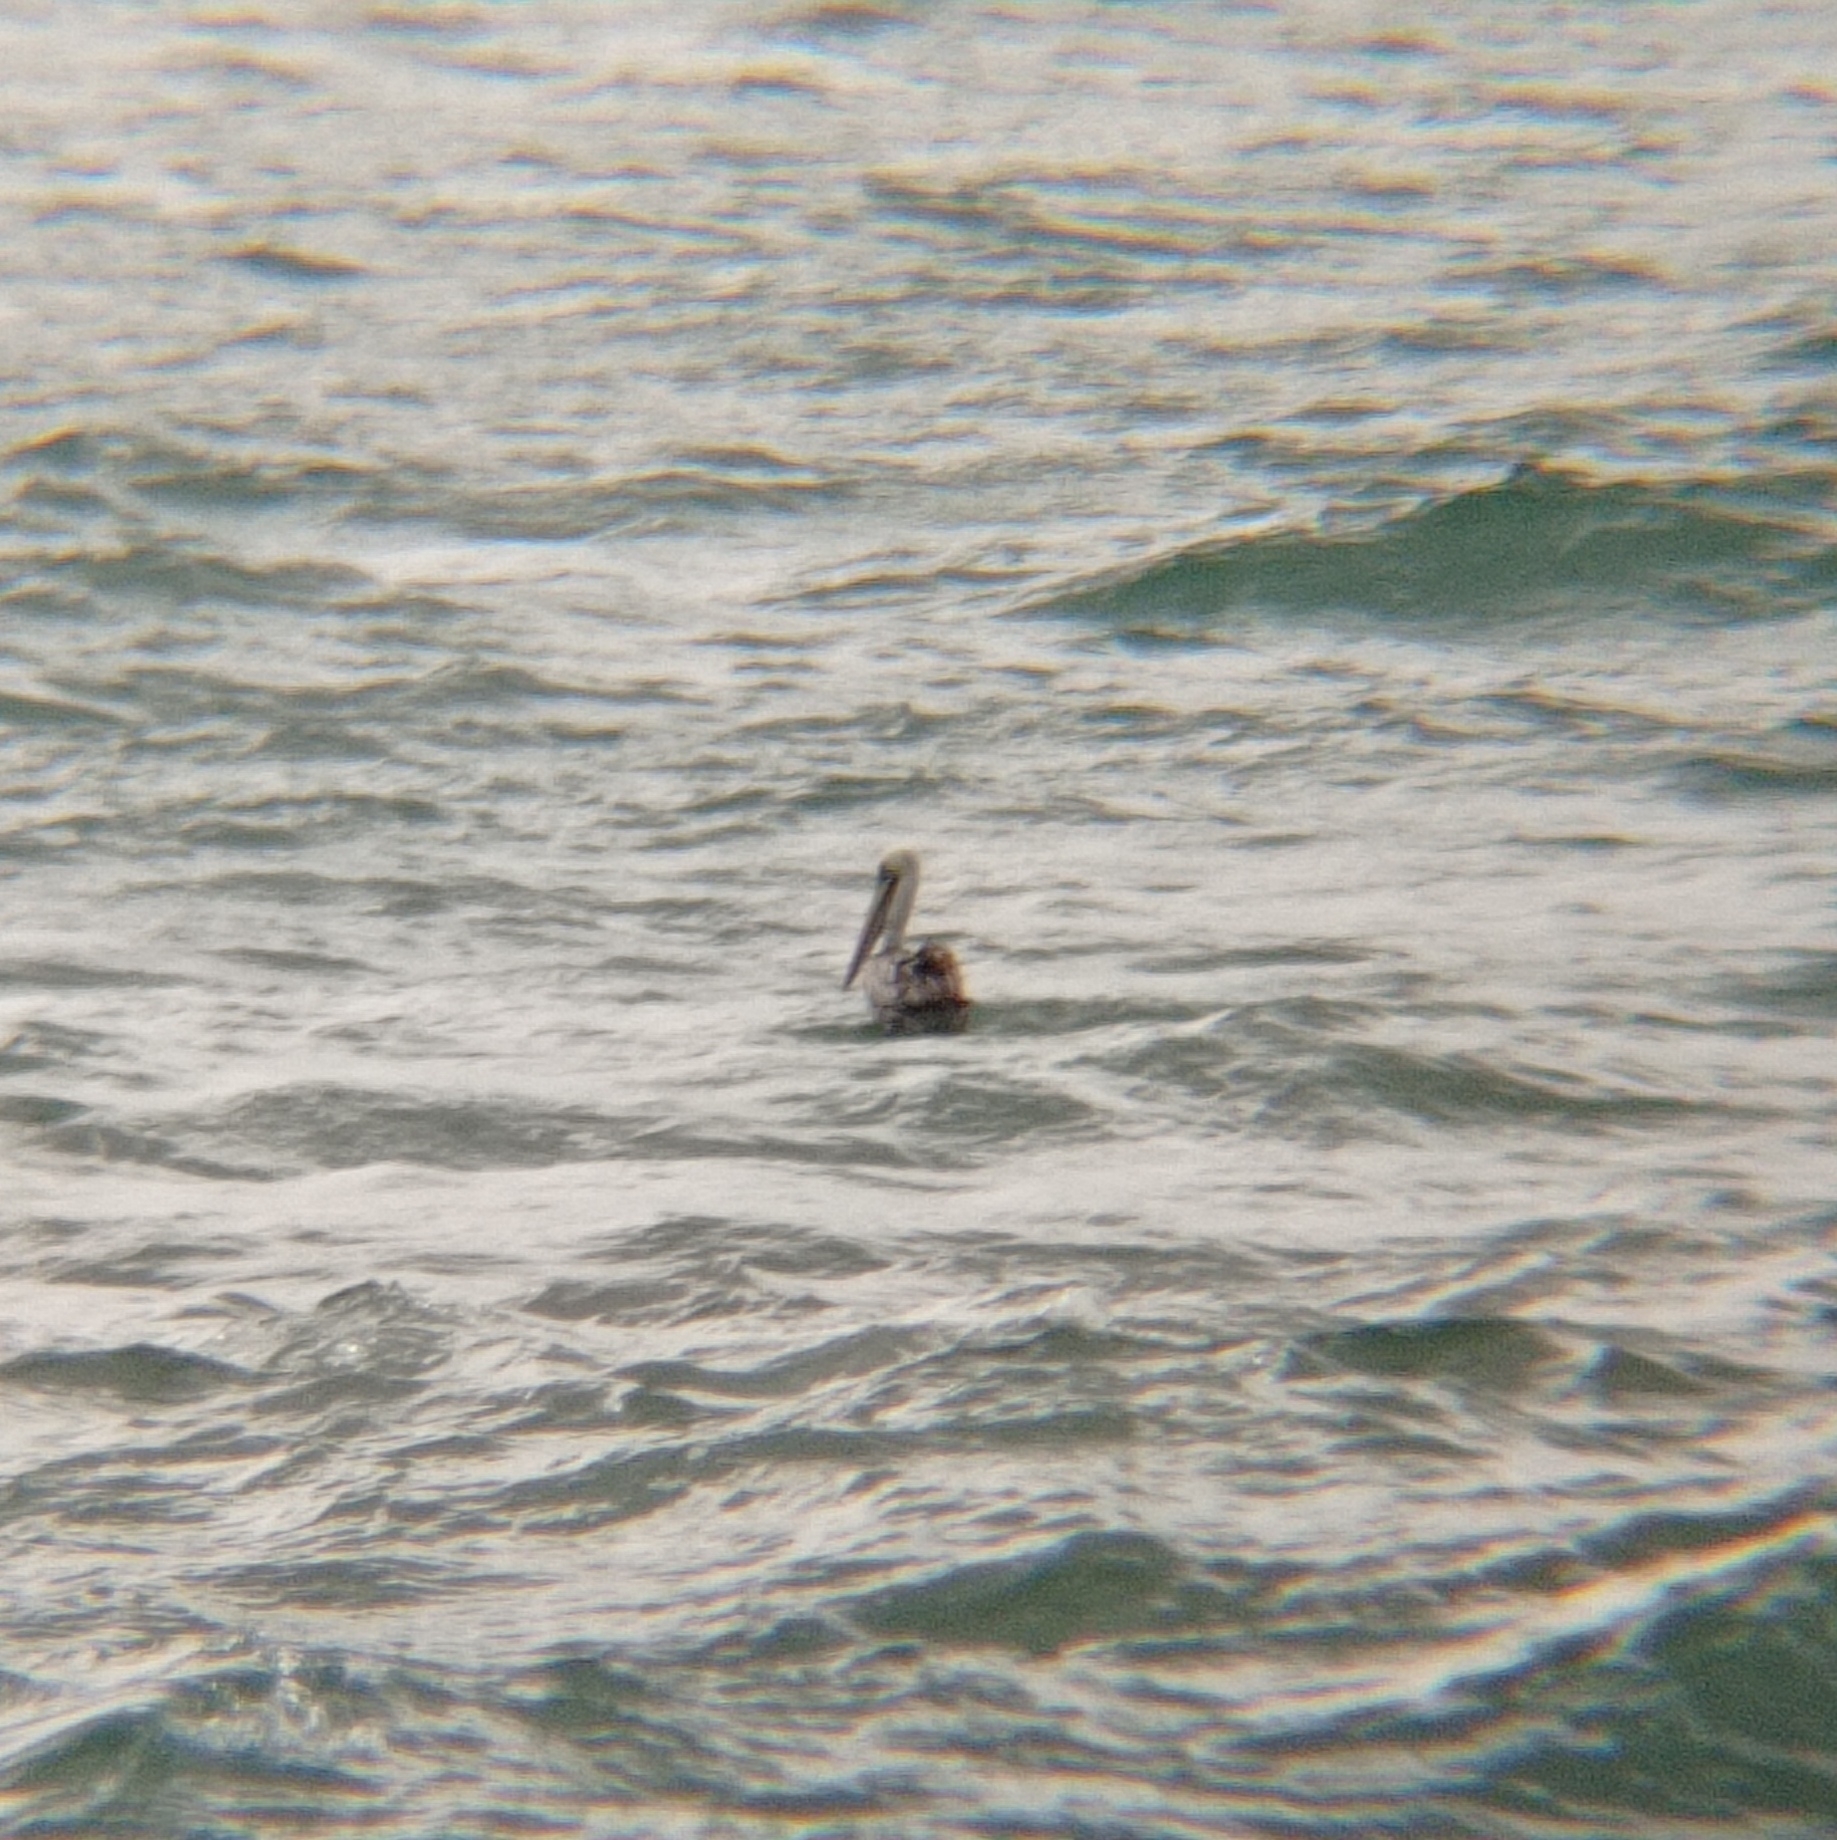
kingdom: Animalia
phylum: Chordata
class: Aves
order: Pelecaniformes
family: Pelecanidae
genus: Pelecanus
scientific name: Pelecanus thagus
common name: Peruvian pelican
